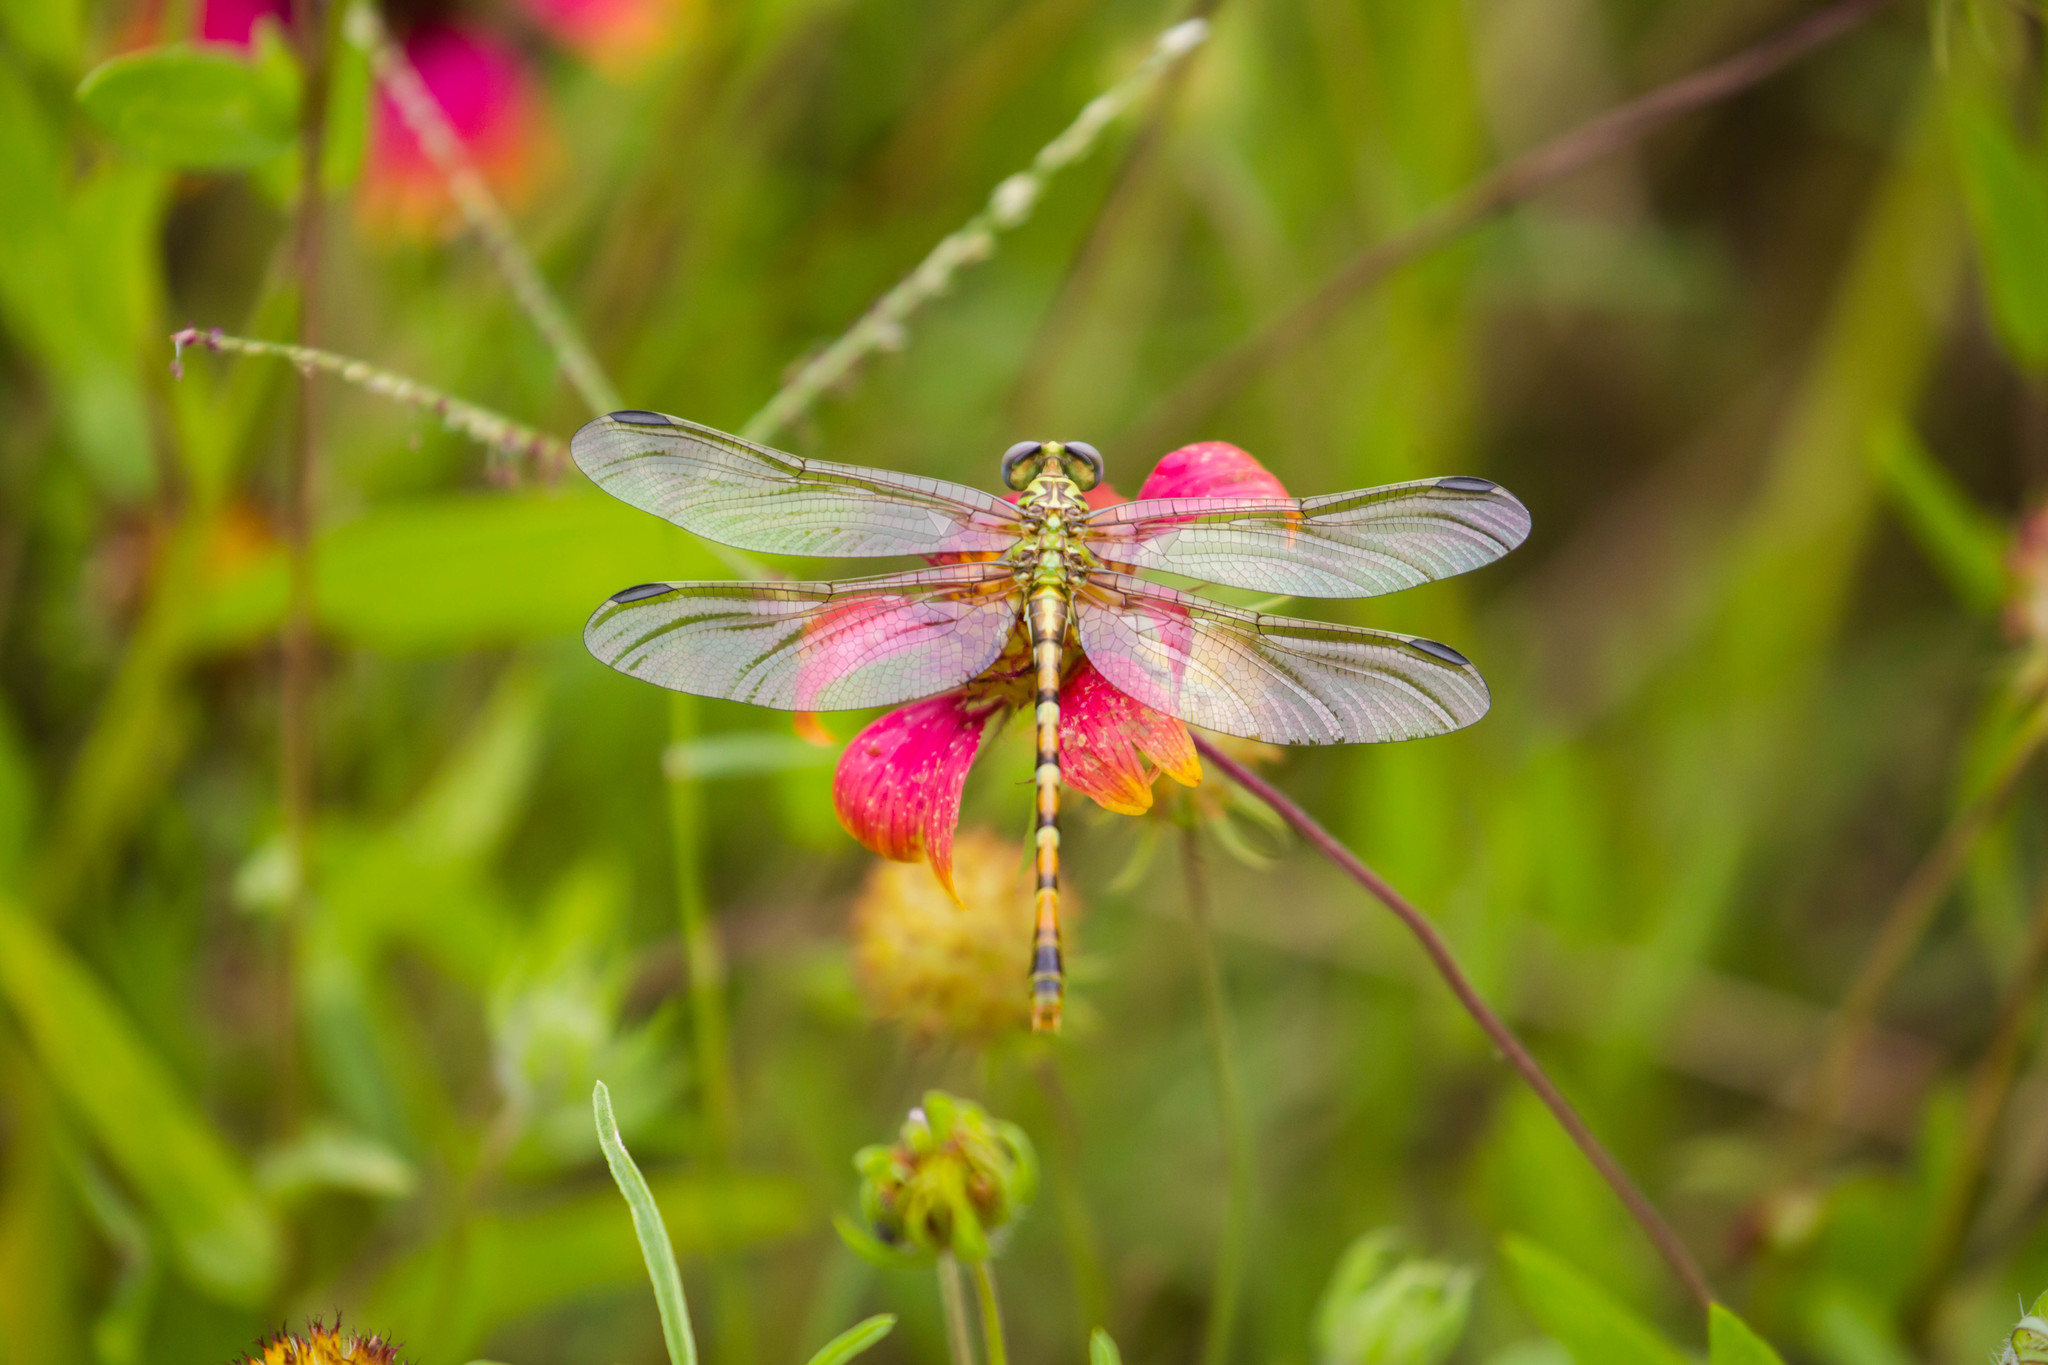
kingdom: Animalia
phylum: Arthropoda
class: Insecta
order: Odonata
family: Gomphidae
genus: Erpetogomphus
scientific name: Erpetogomphus designatus
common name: Eastern ringtail
